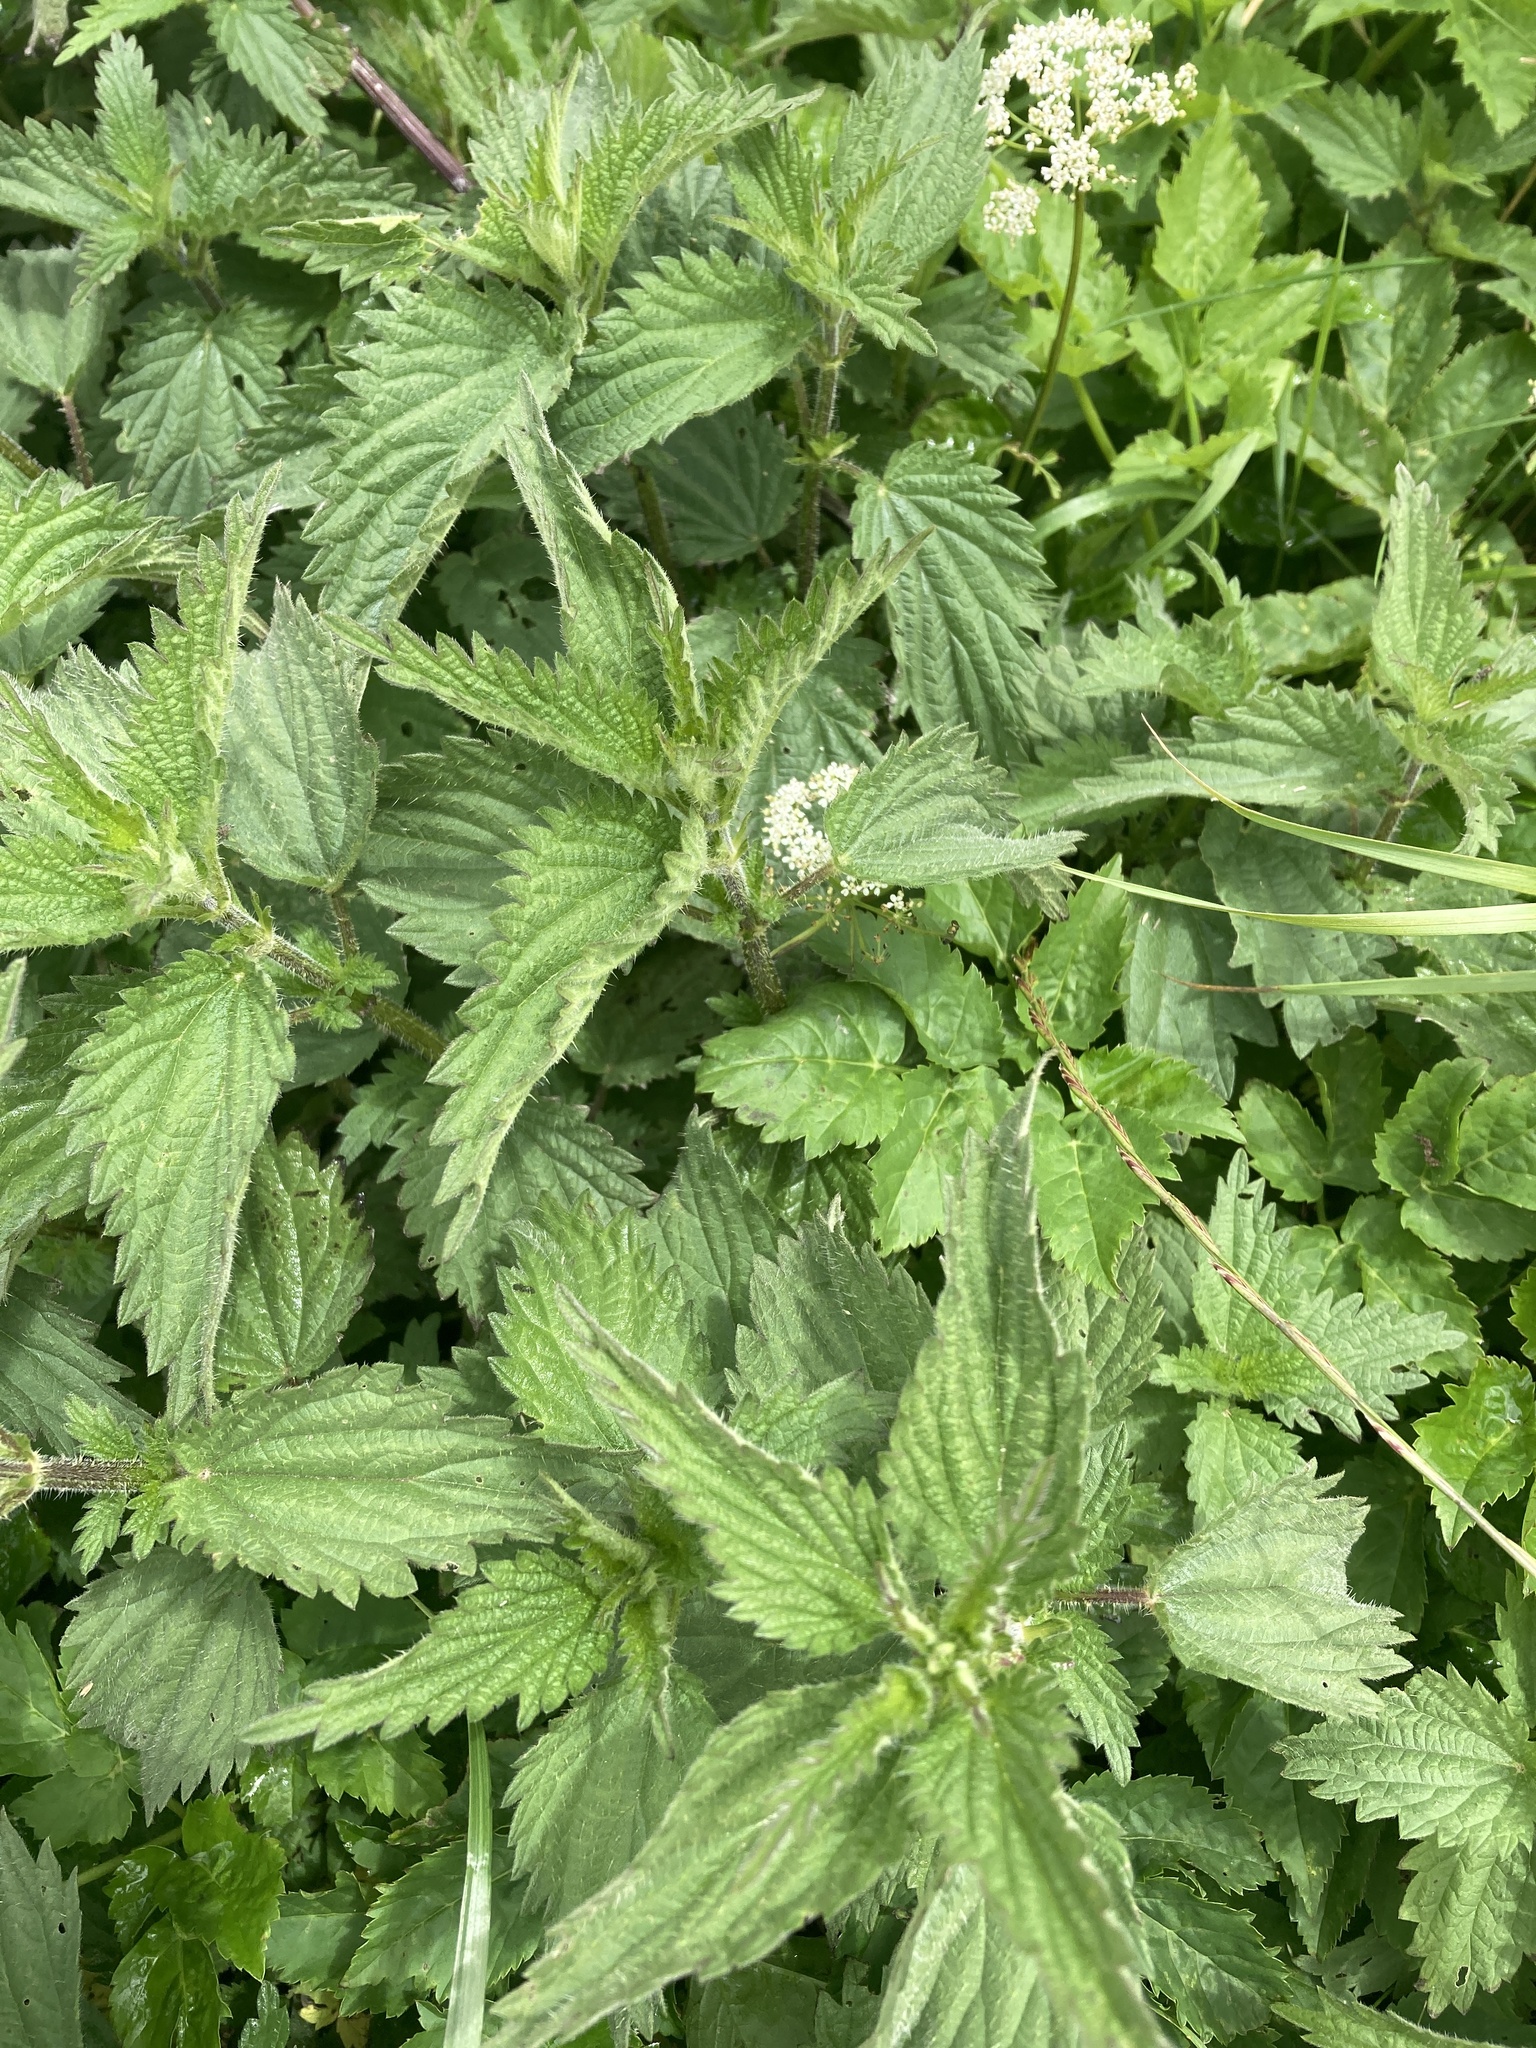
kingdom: Plantae
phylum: Tracheophyta
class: Magnoliopsida
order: Rosales
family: Urticaceae
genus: Urtica
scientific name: Urtica dioica
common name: Common nettle
